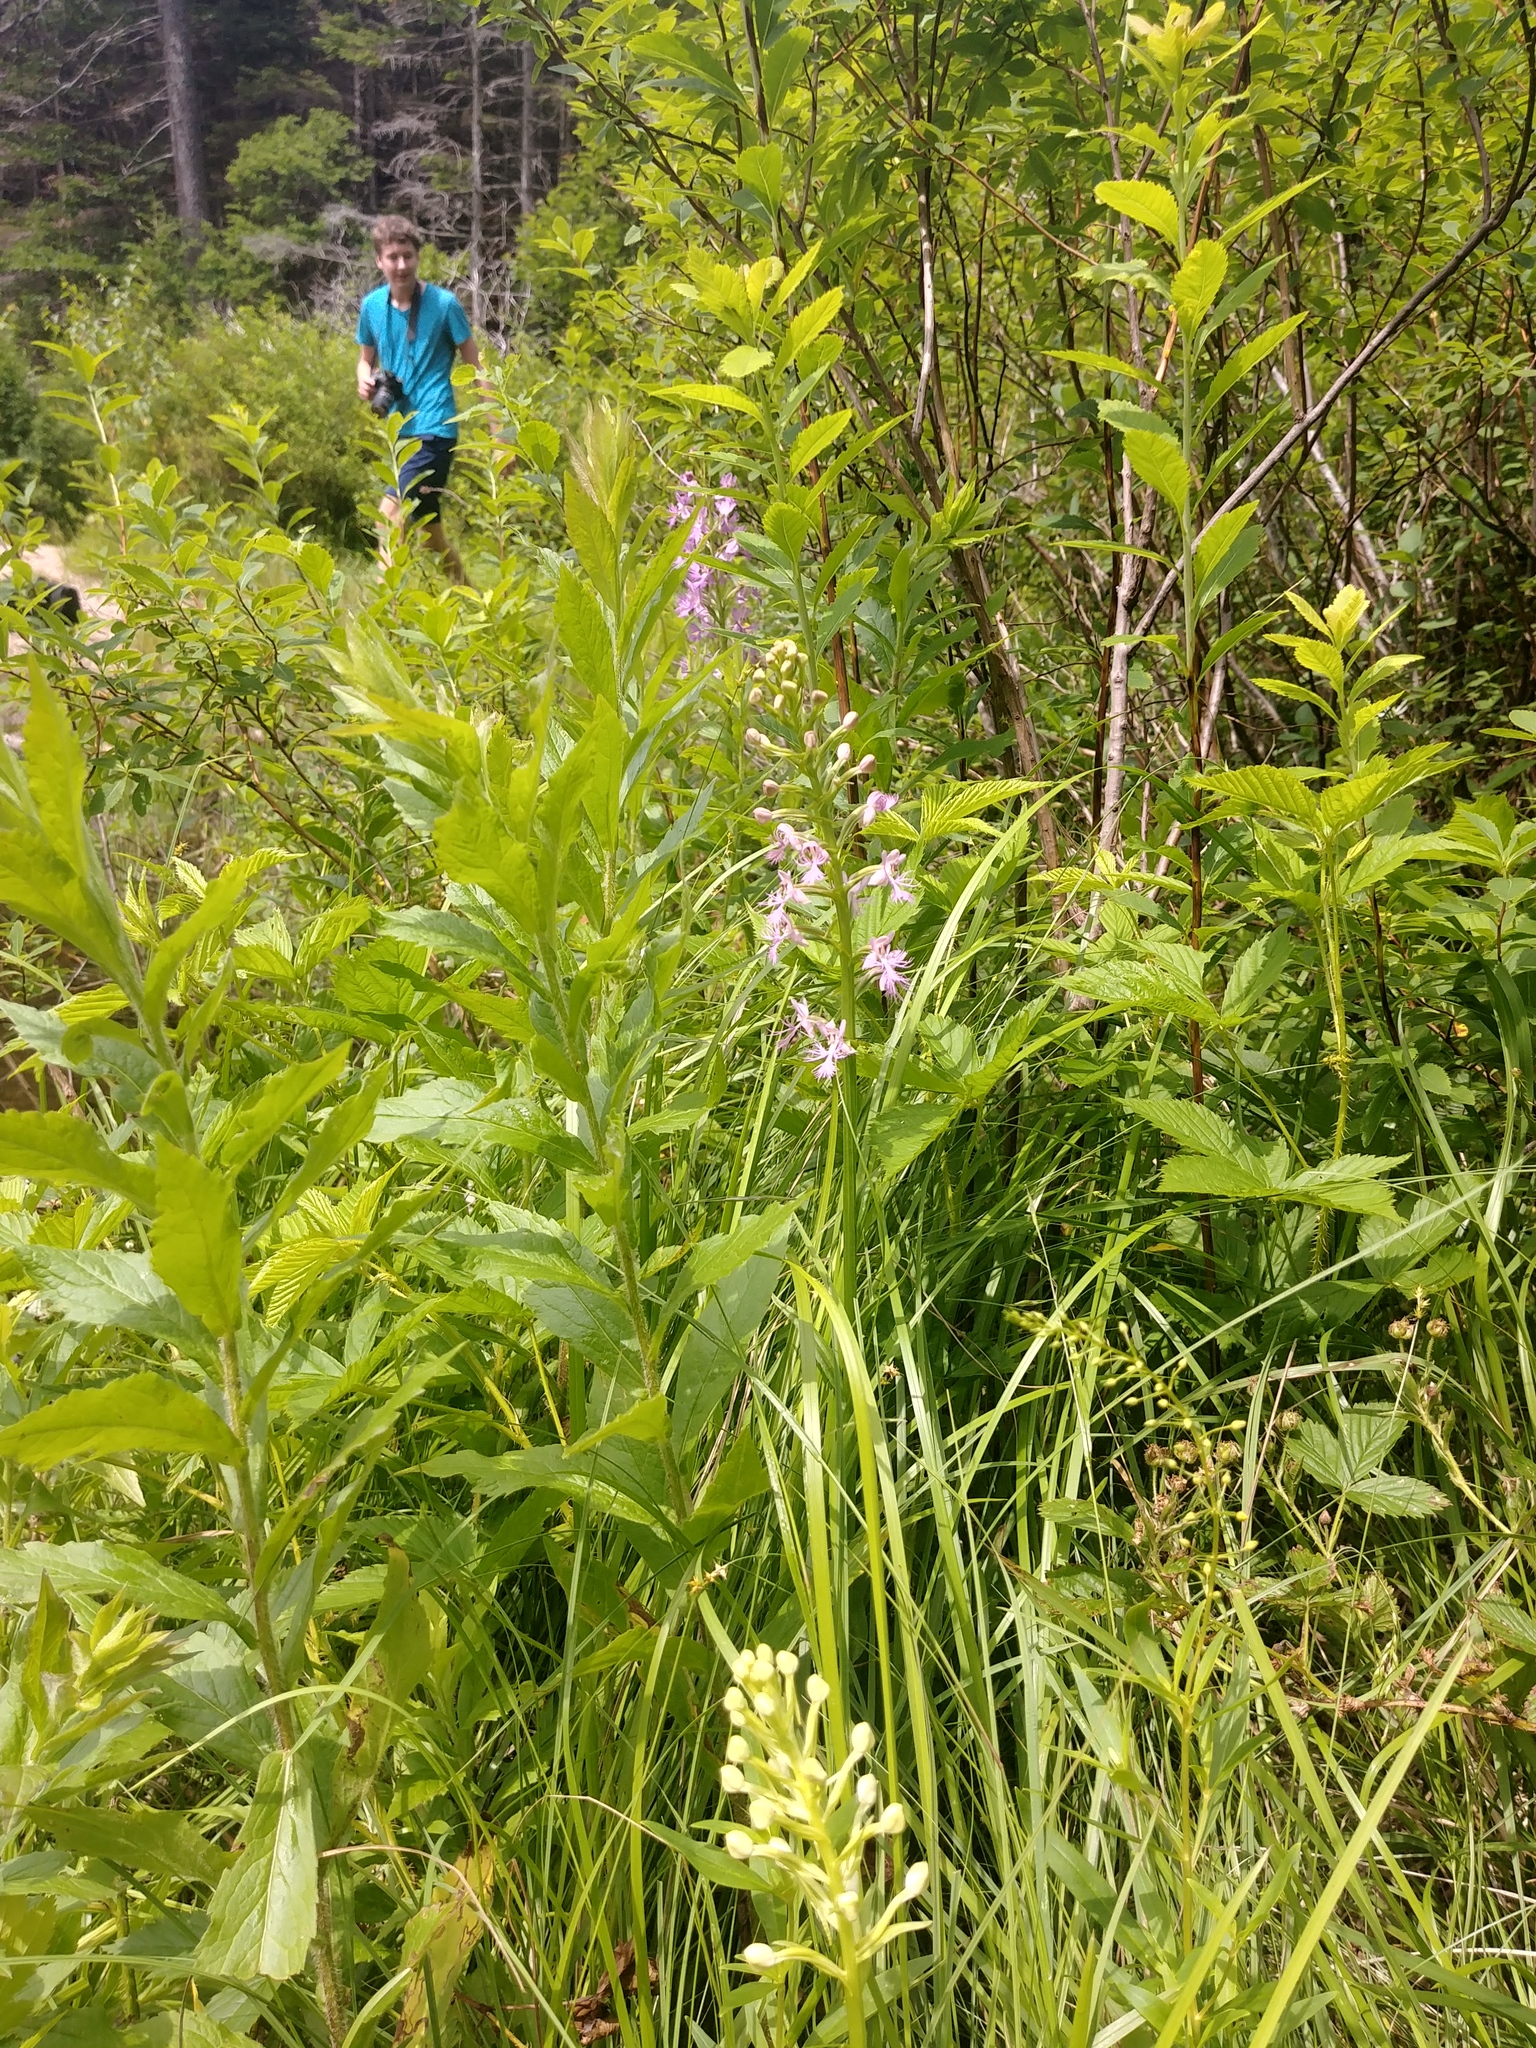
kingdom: Plantae
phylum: Tracheophyta
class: Liliopsida
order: Asparagales
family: Orchidaceae
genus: Platanthera
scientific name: Platanthera lacera
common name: Green fringed orchid
